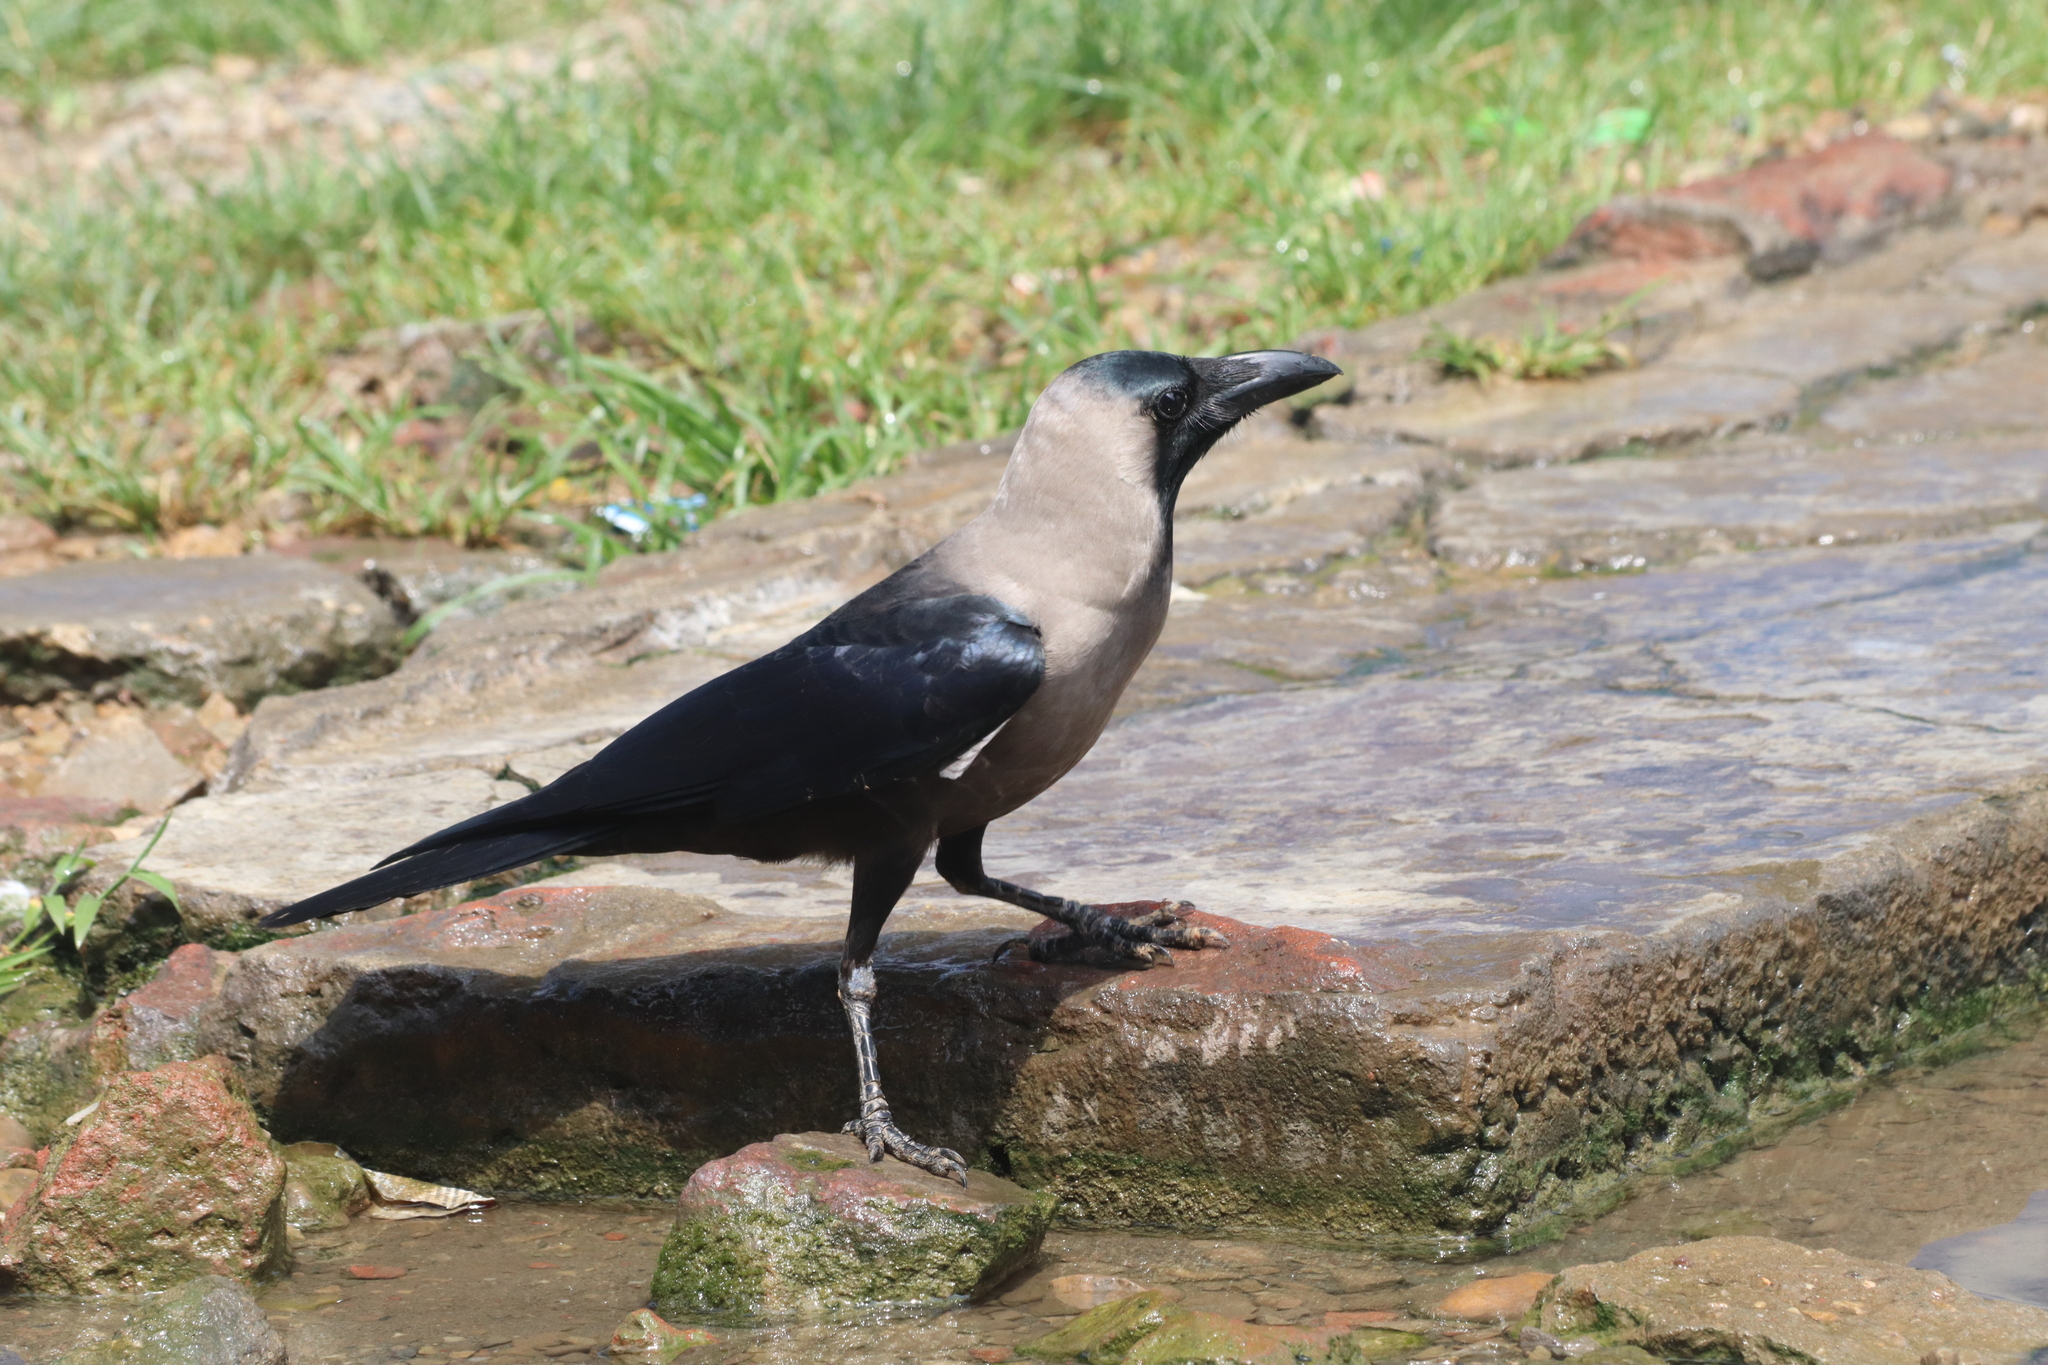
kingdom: Animalia
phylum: Chordata
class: Aves
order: Passeriformes
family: Corvidae
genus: Corvus
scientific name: Corvus splendens
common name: House crow
